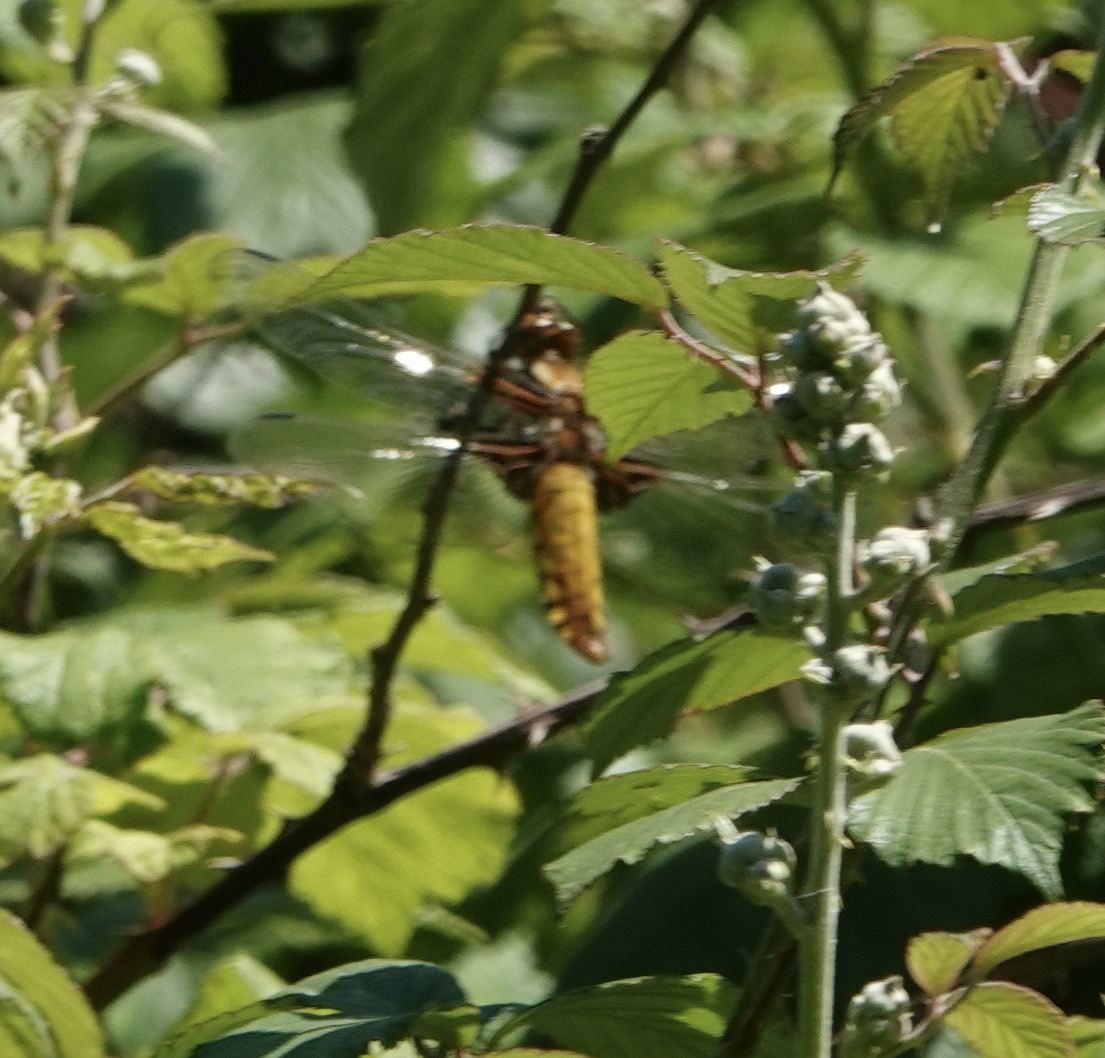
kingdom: Animalia
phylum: Arthropoda
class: Insecta
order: Odonata
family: Libellulidae
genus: Libellula
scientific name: Libellula depressa
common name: Broad-bodied chaser
